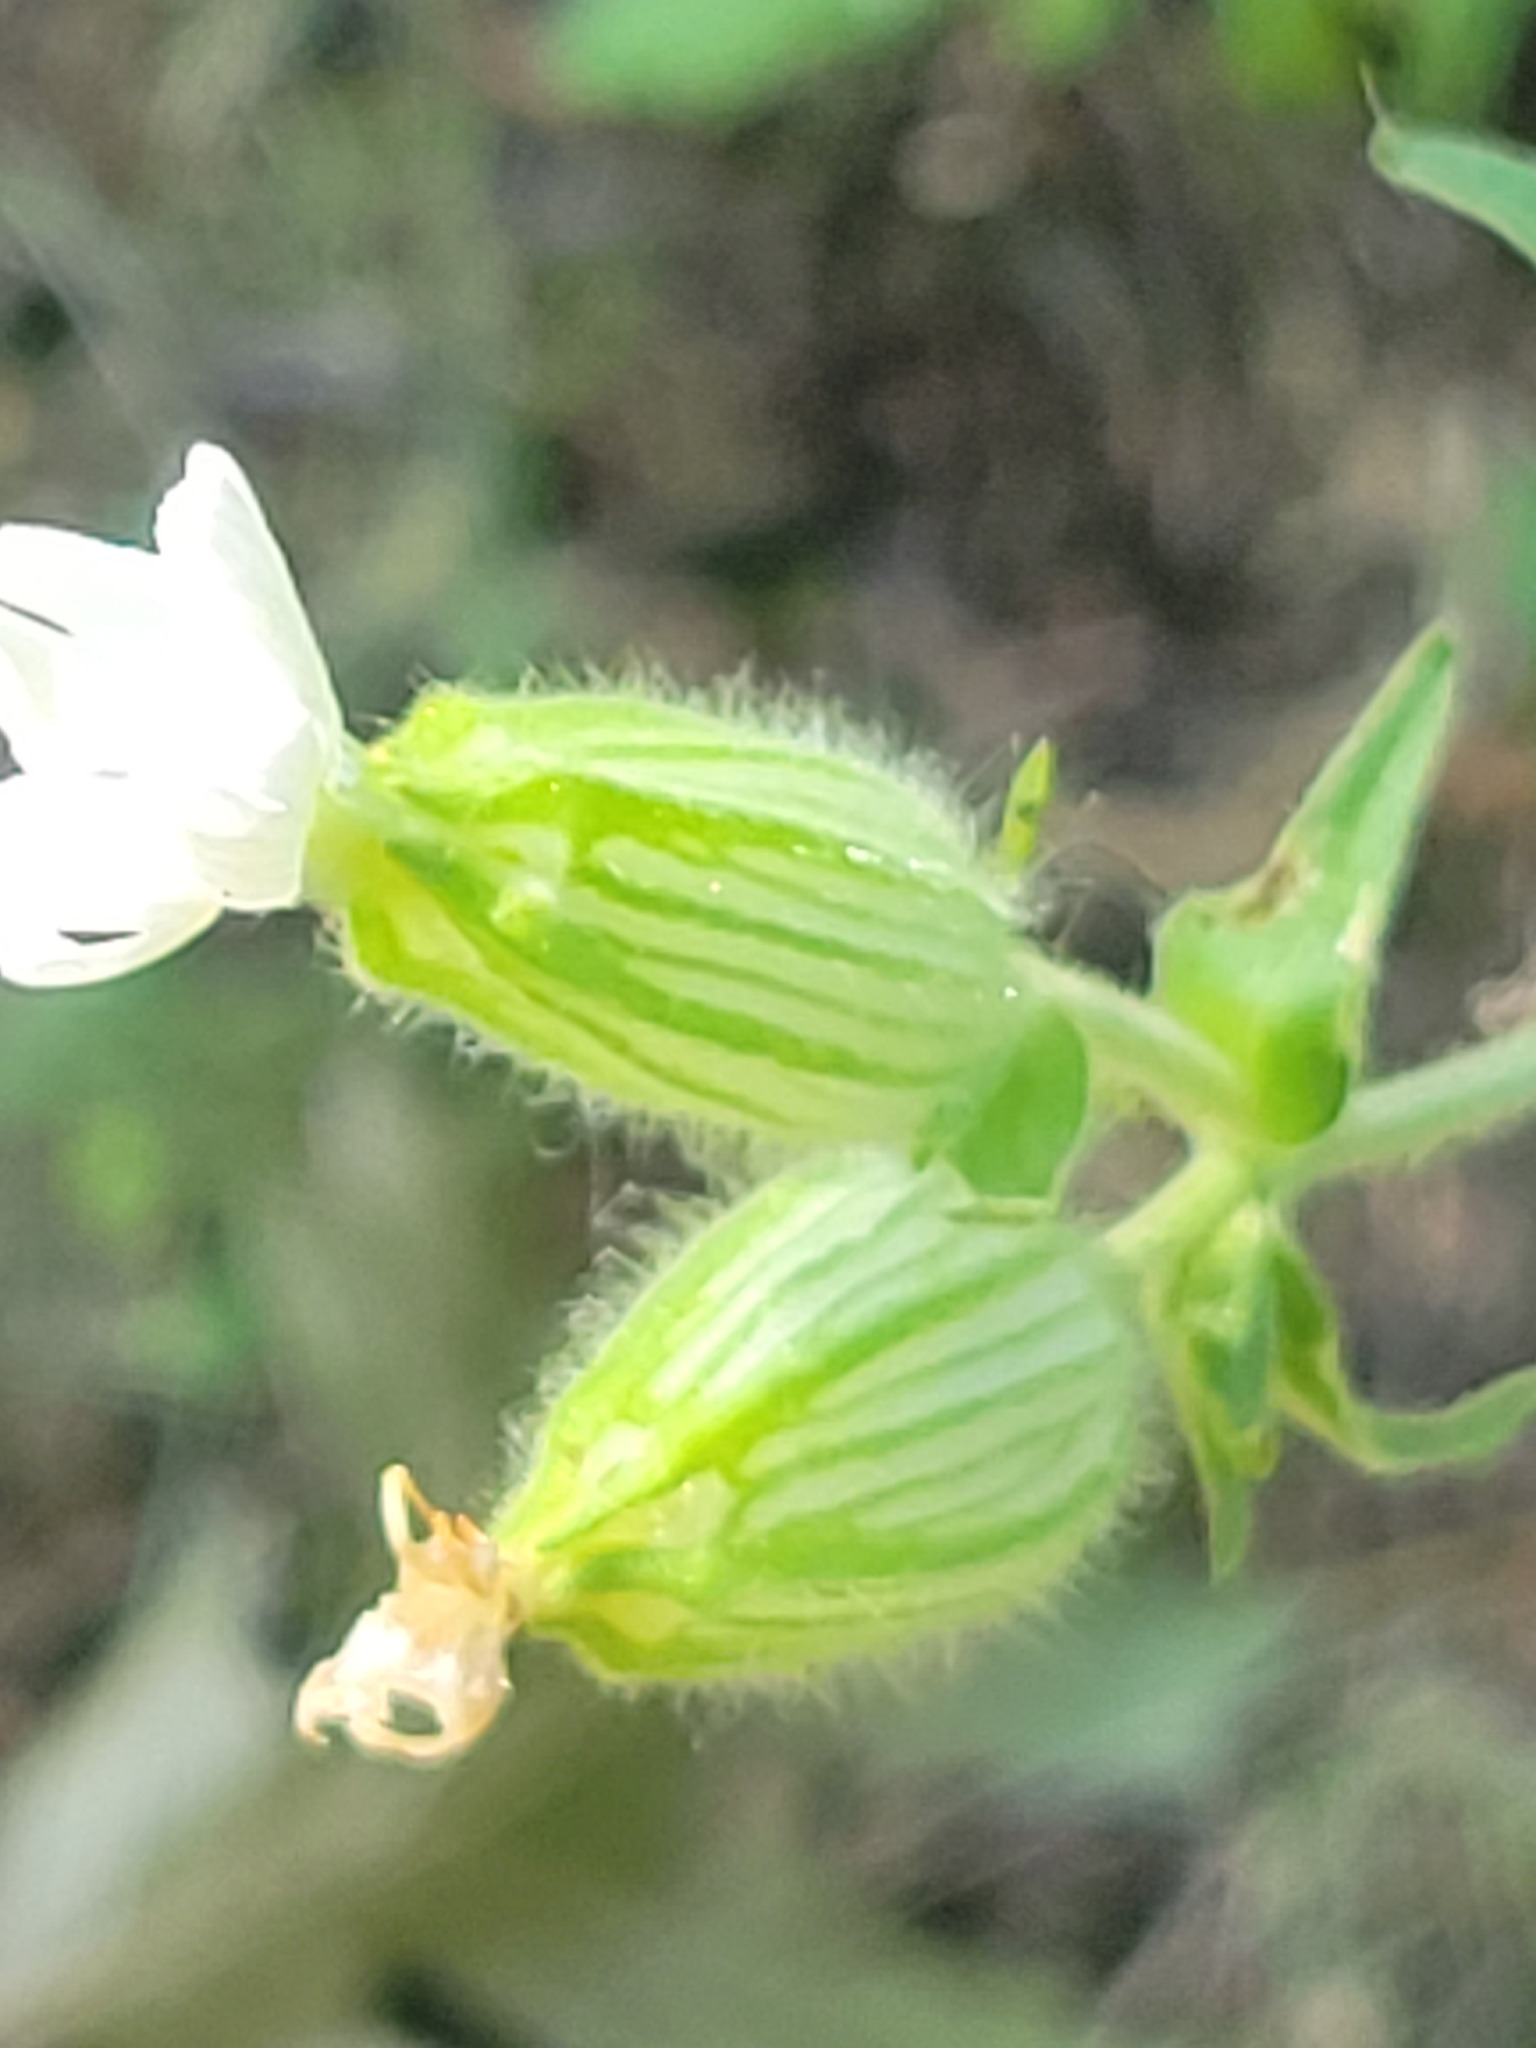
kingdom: Plantae
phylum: Tracheophyta
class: Magnoliopsida
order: Caryophyllales
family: Caryophyllaceae
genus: Silene
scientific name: Silene latifolia
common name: White campion
